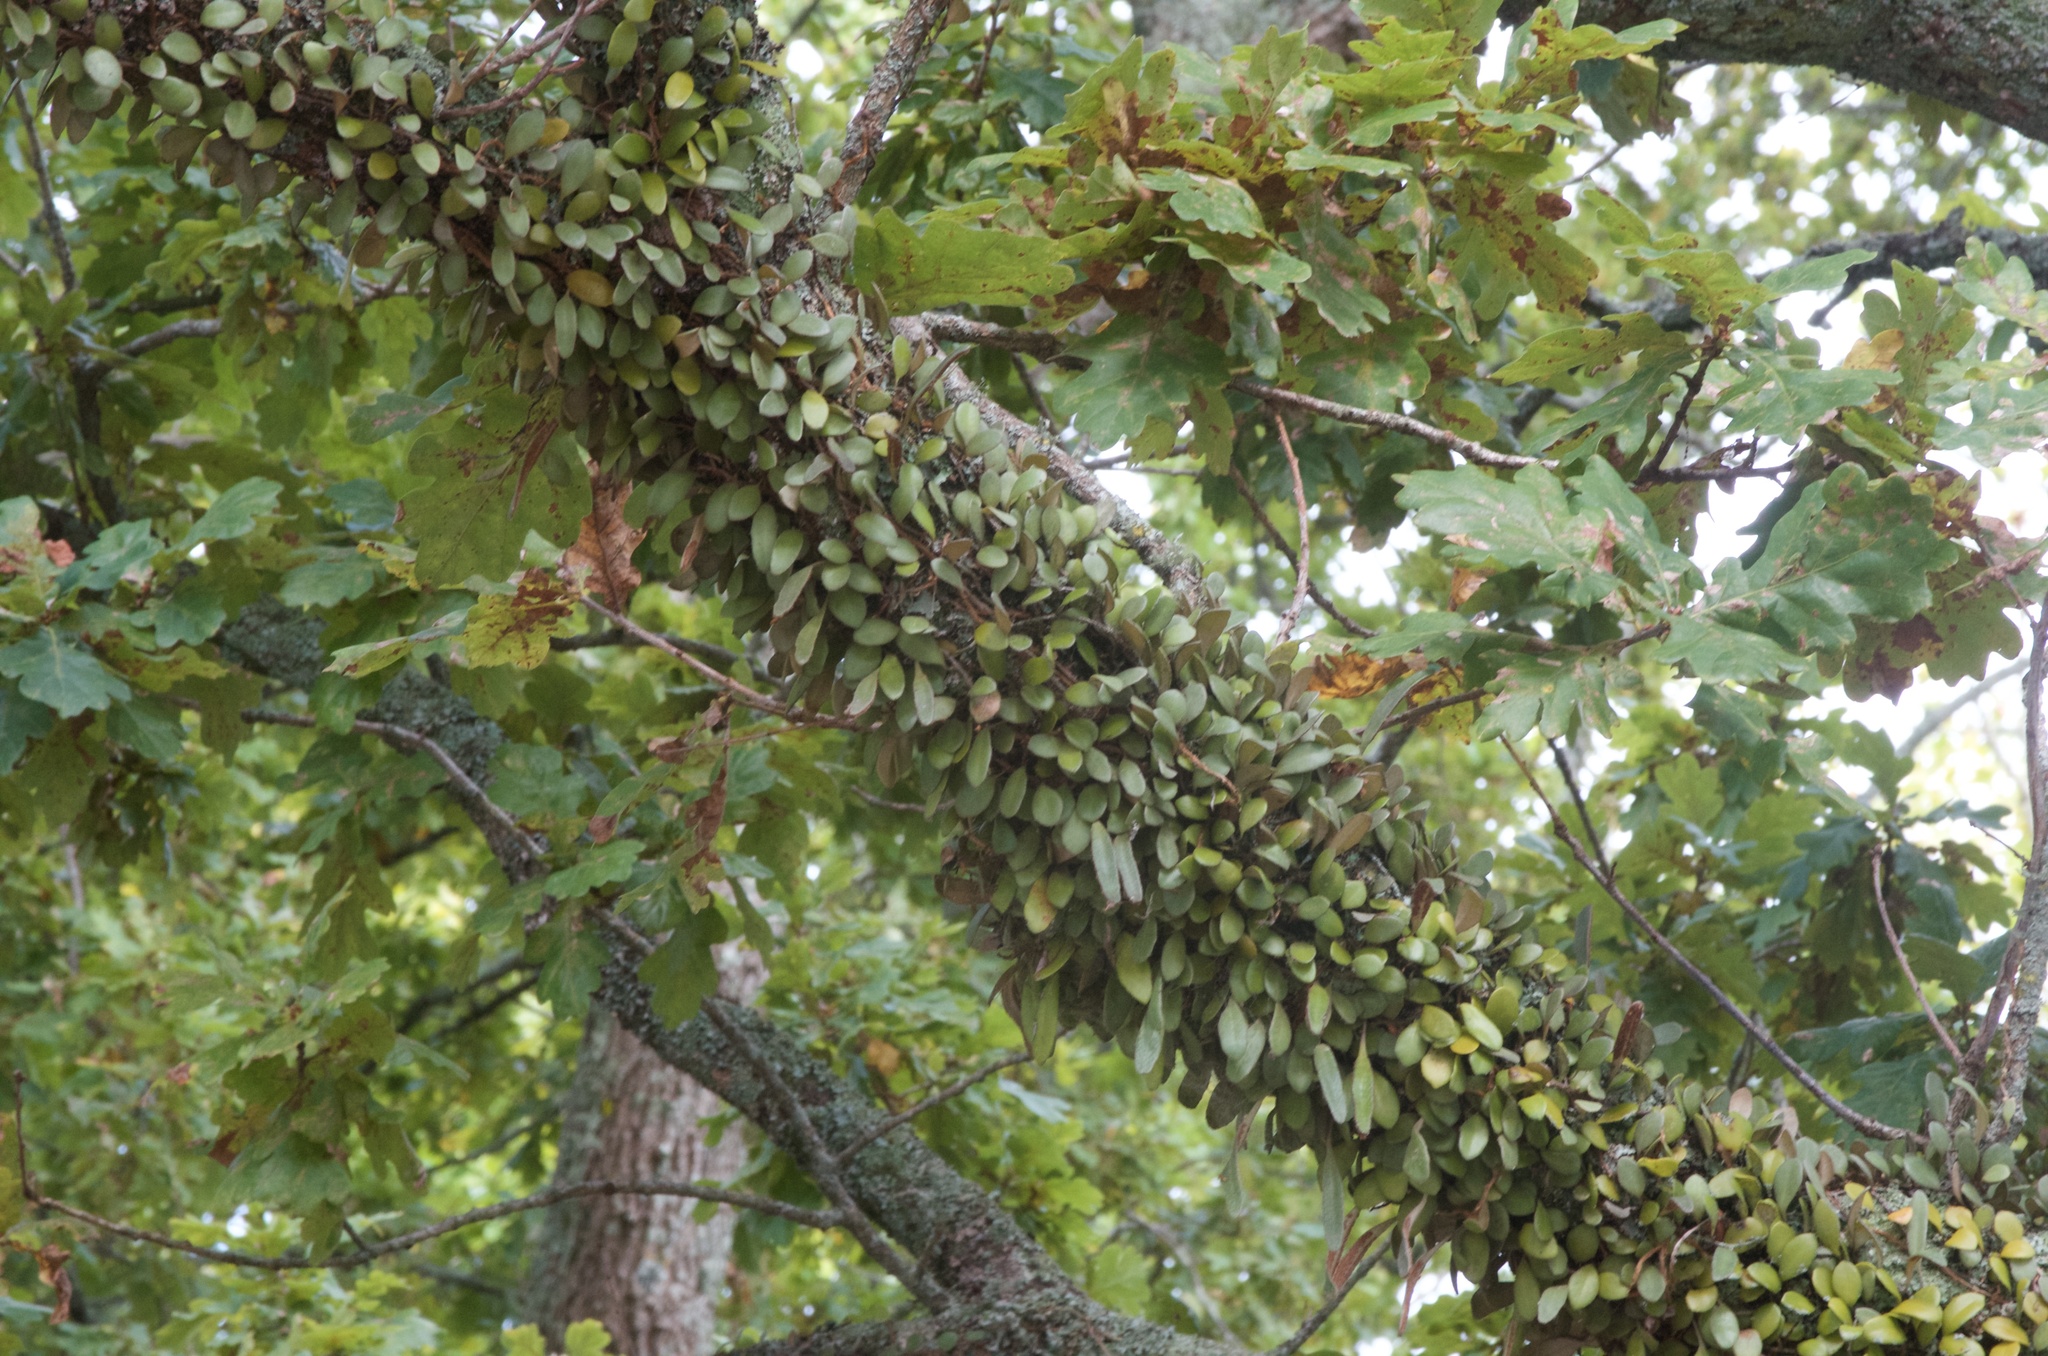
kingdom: Plantae
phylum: Tracheophyta
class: Polypodiopsida
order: Polypodiales
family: Polypodiaceae
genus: Pyrrosia
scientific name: Pyrrosia eleagnifolia
